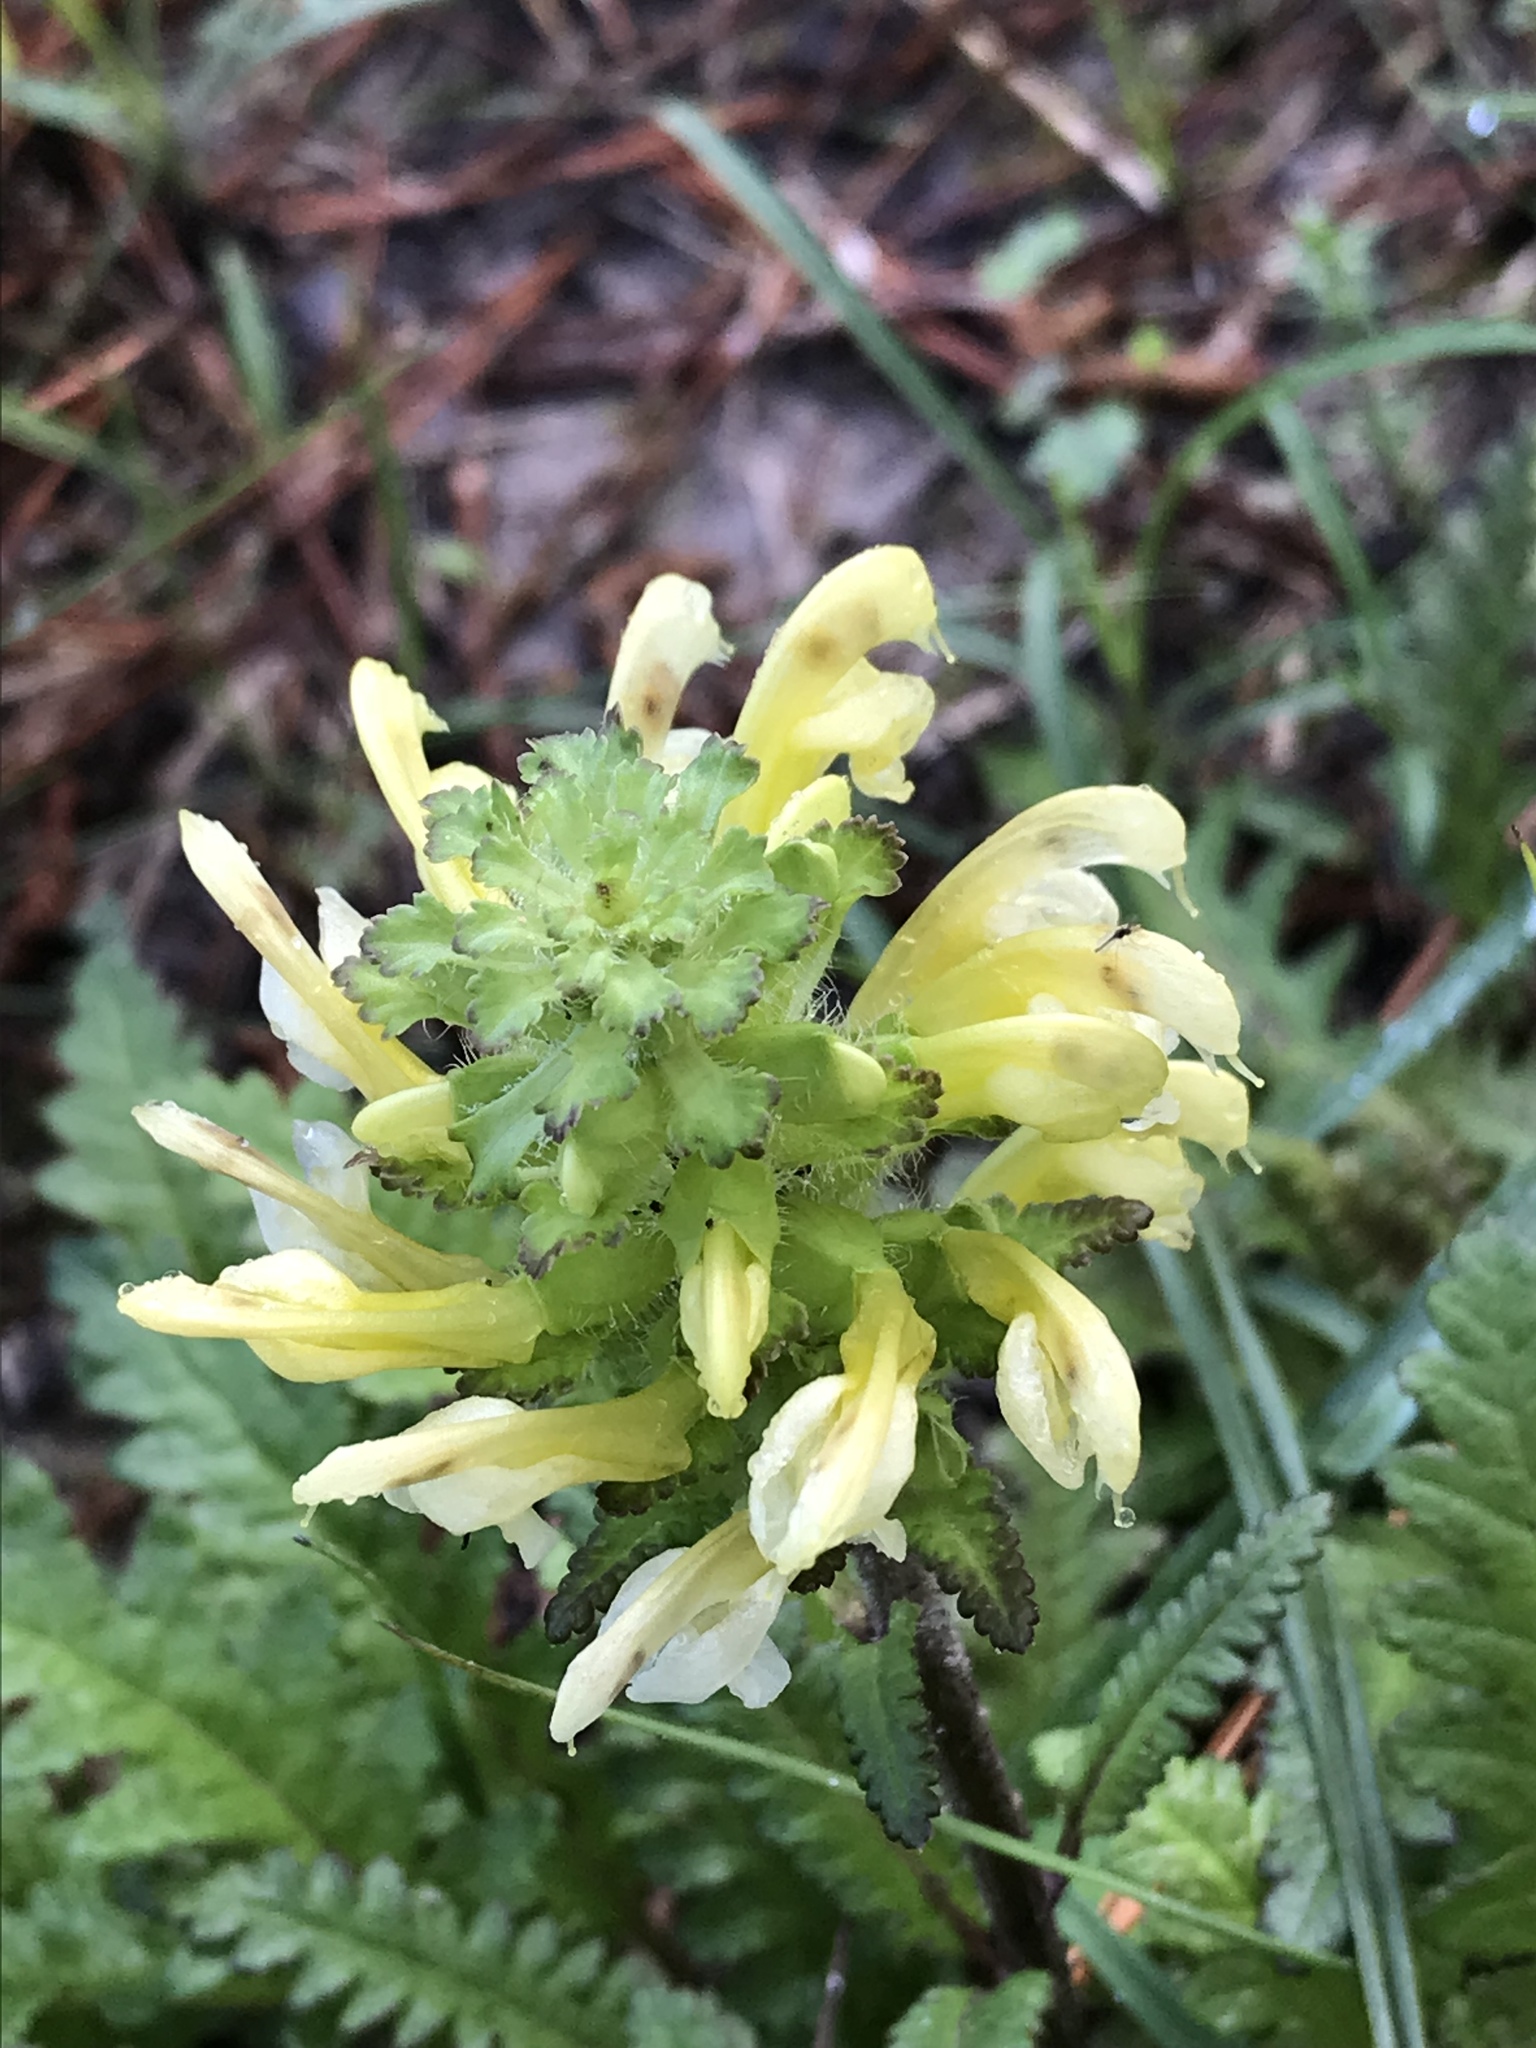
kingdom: Plantae
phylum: Tracheophyta
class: Magnoliopsida
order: Lamiales
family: Orobanchaceae
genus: Pedicularis
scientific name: Pedicularis canadensis
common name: Early lousewort
